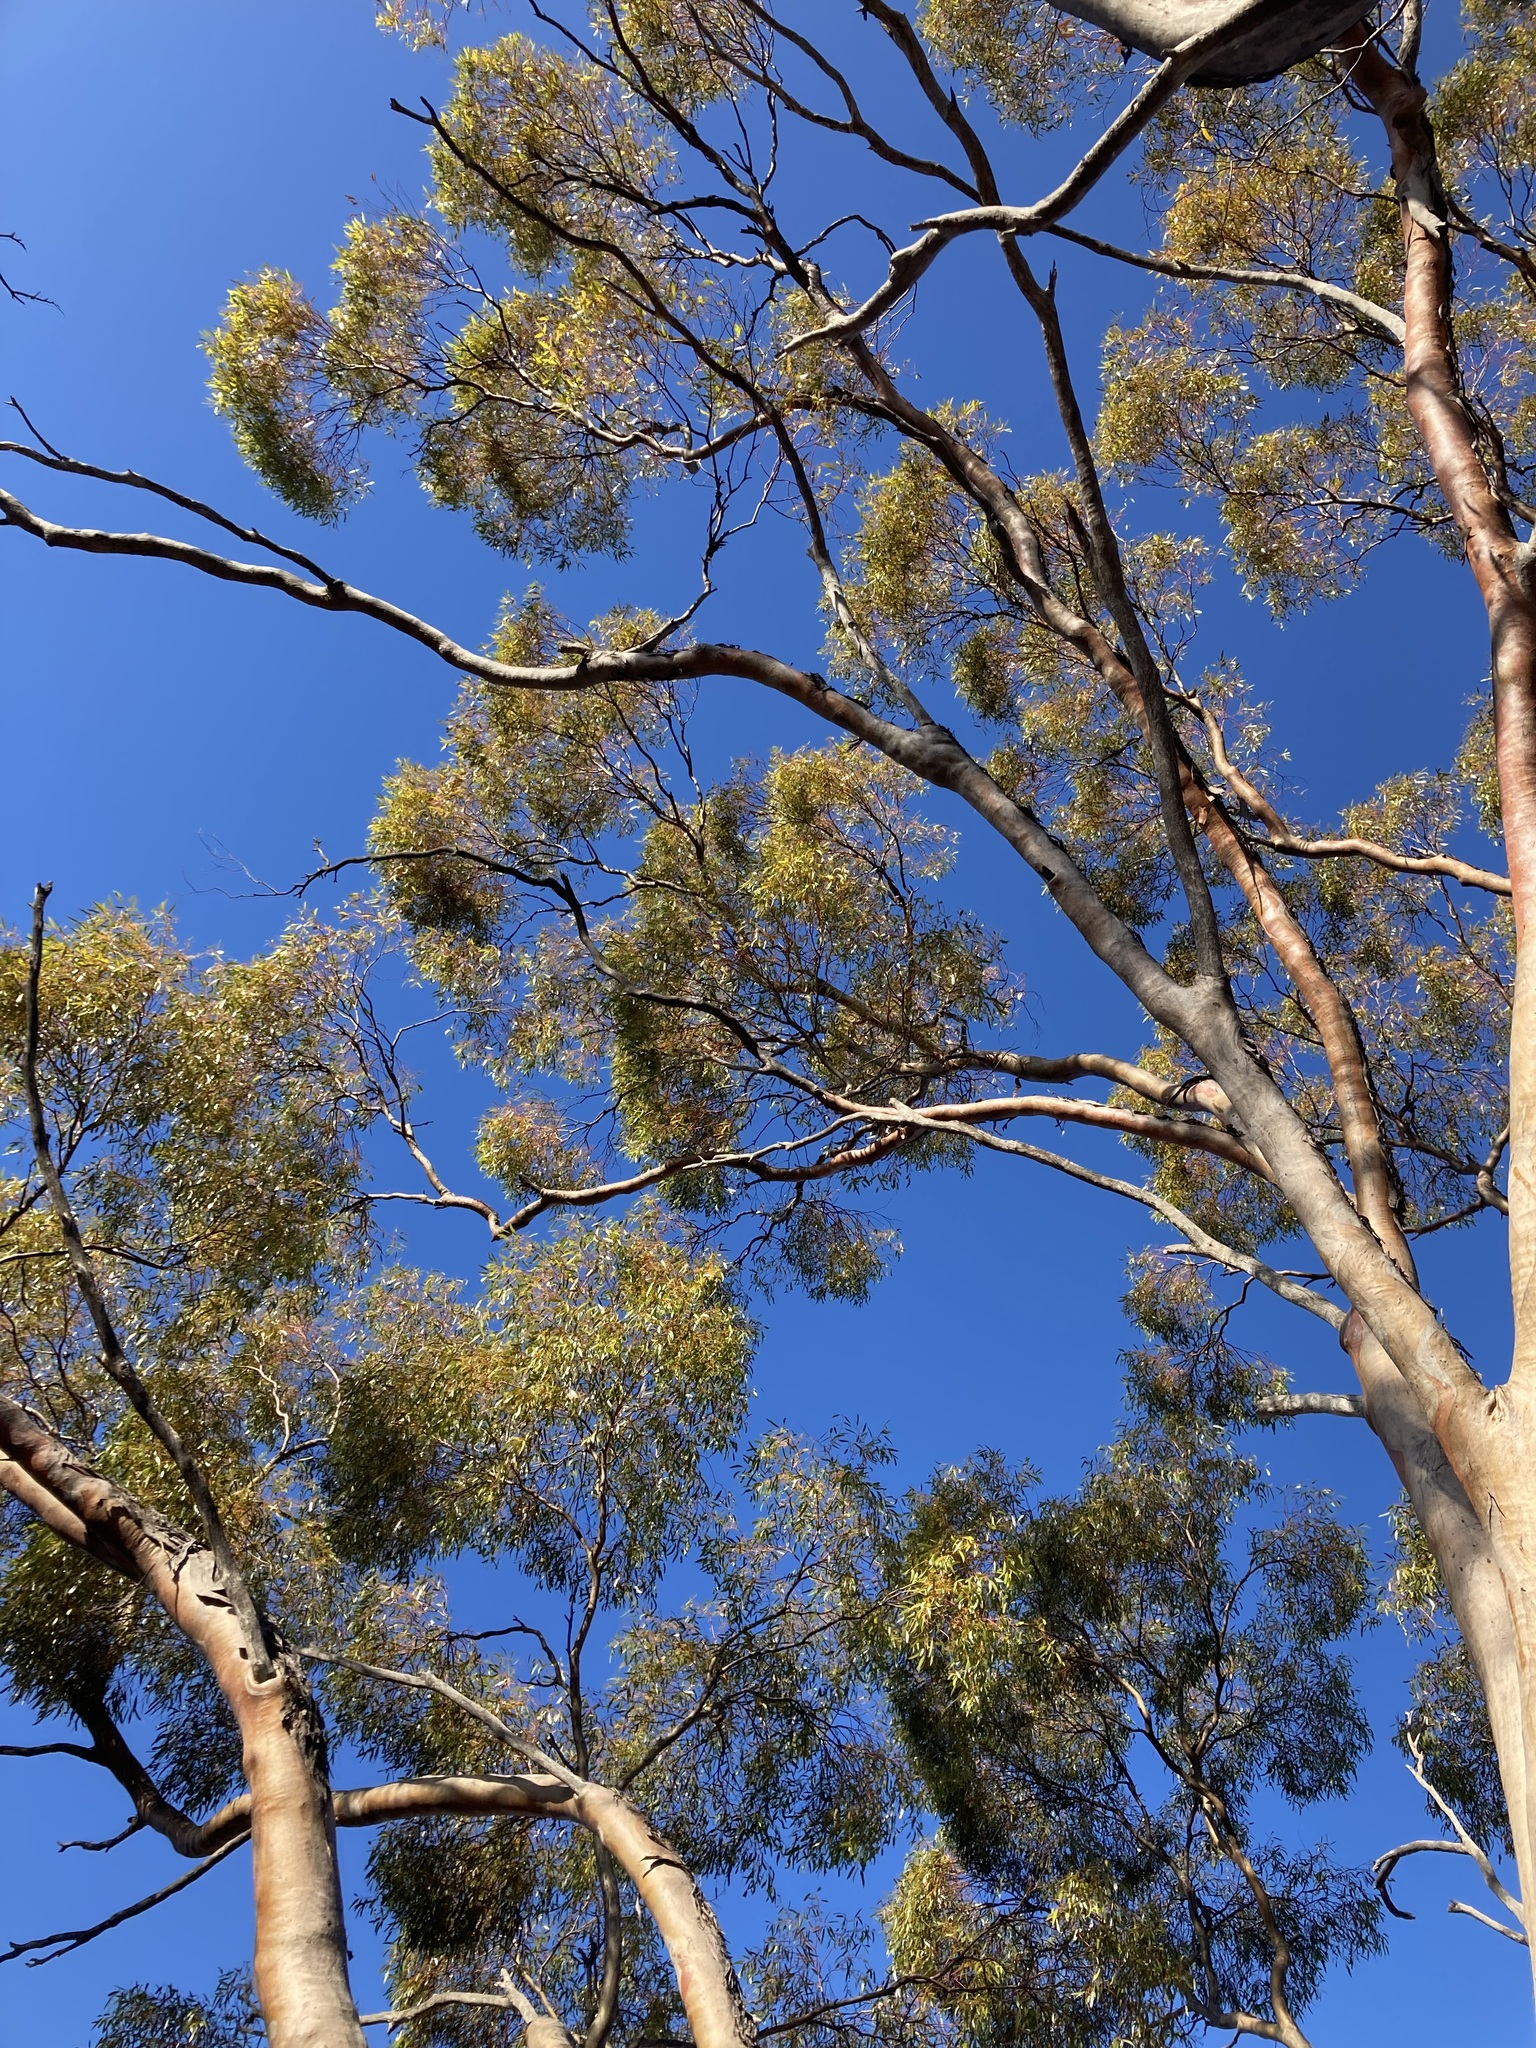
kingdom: Plantae
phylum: Tracheophyta
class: Magnoliopsida
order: Myrtales
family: Myrtaceae
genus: Eucalyptus
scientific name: Eucalyptus salmonophloia
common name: Salmon gum
